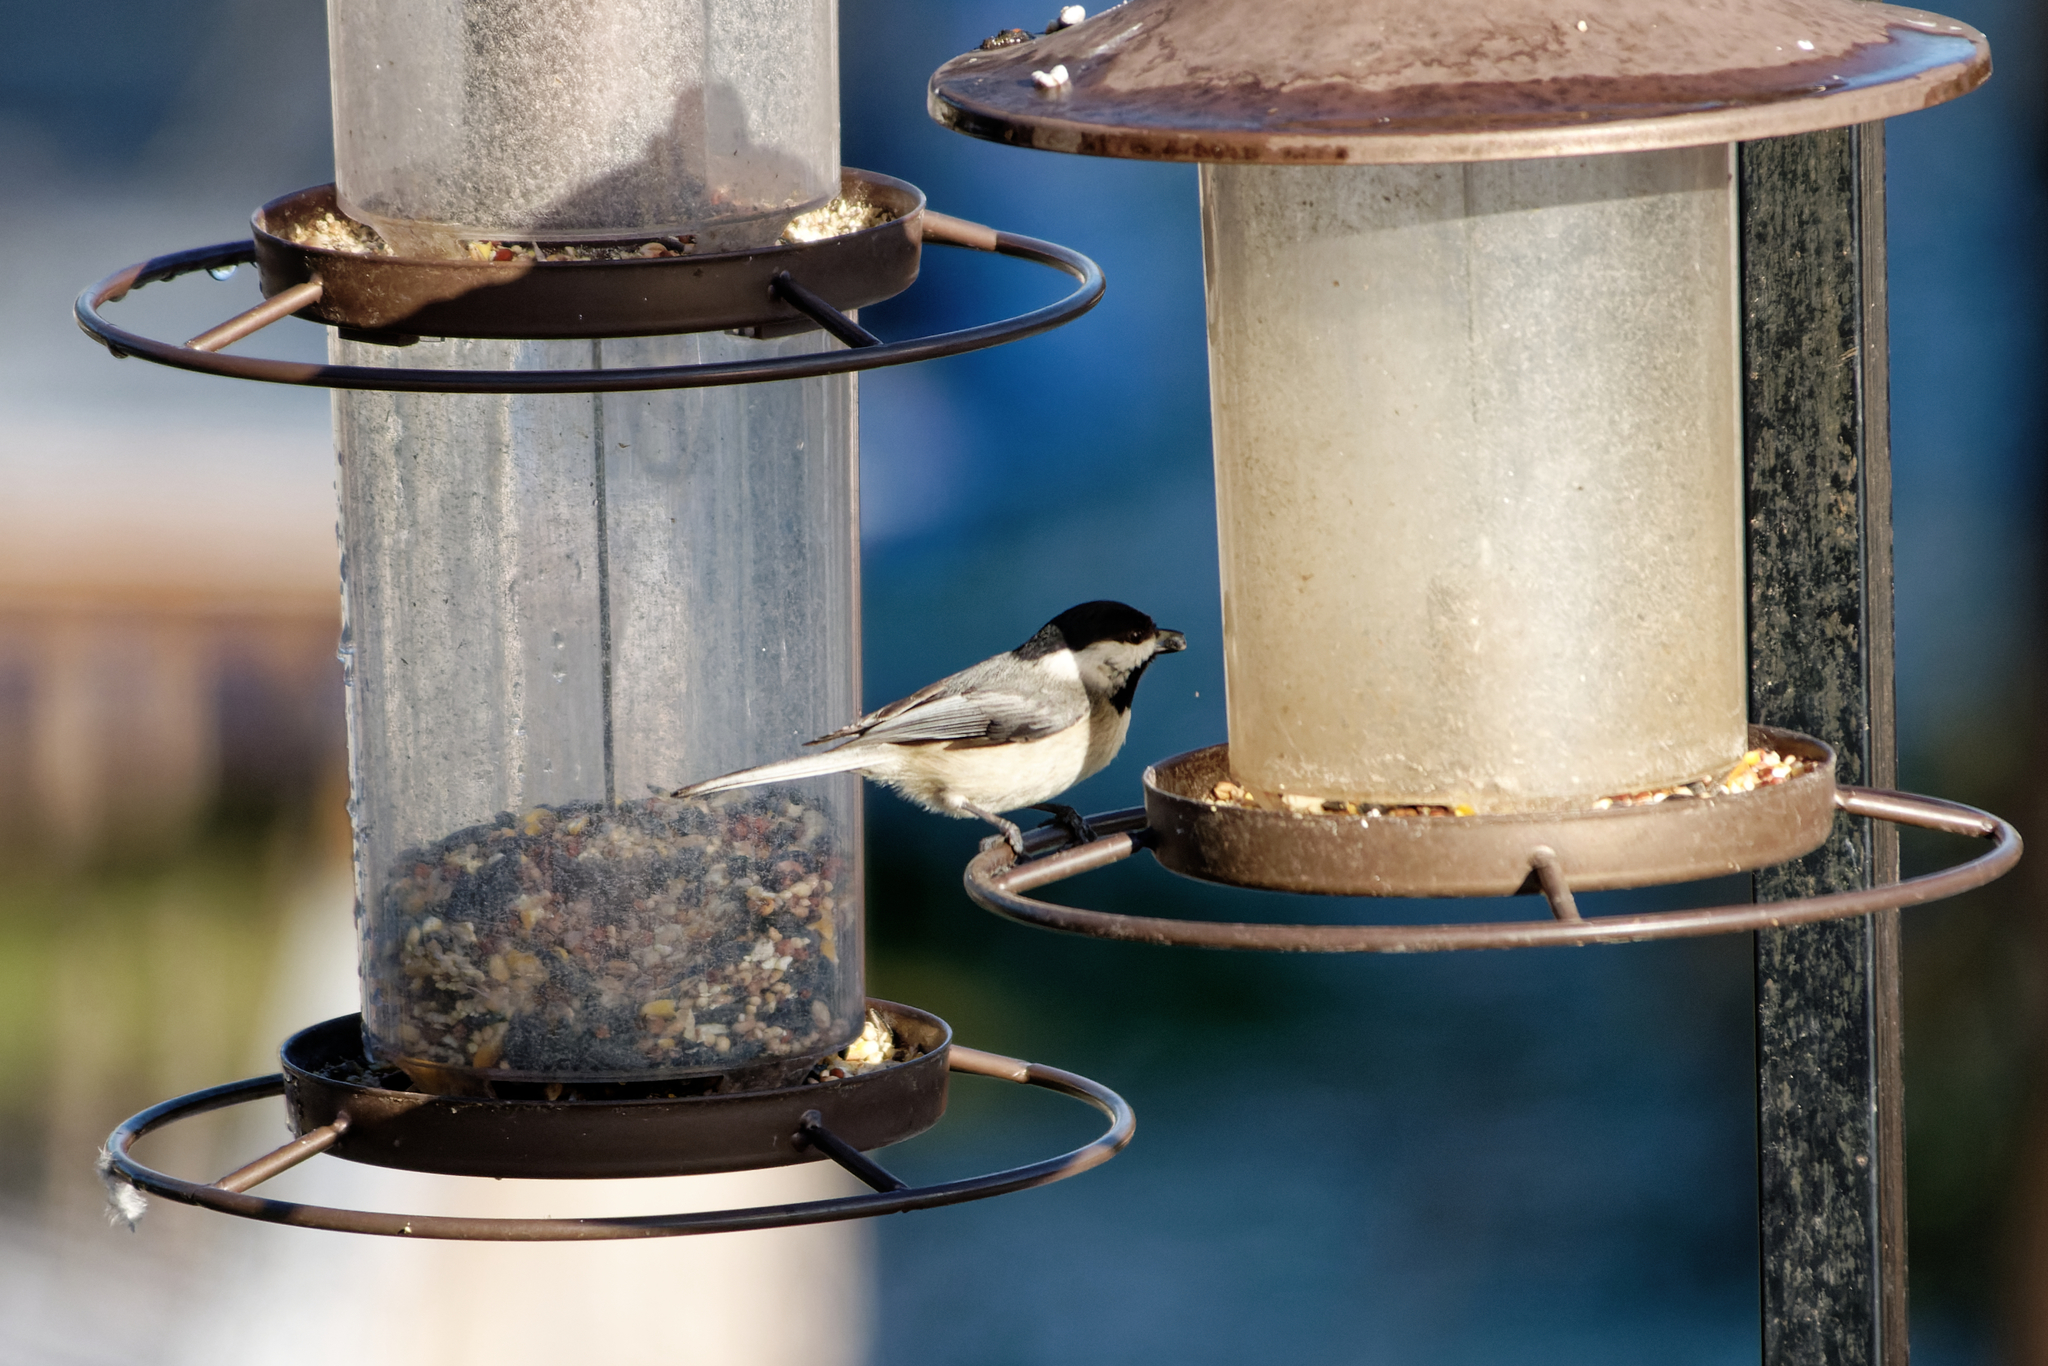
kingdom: Animalia
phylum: Chordata
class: Aves
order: Passeriformes
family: Paridae
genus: Poecile
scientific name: Poecile carolinensis
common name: Carolina chickadee
